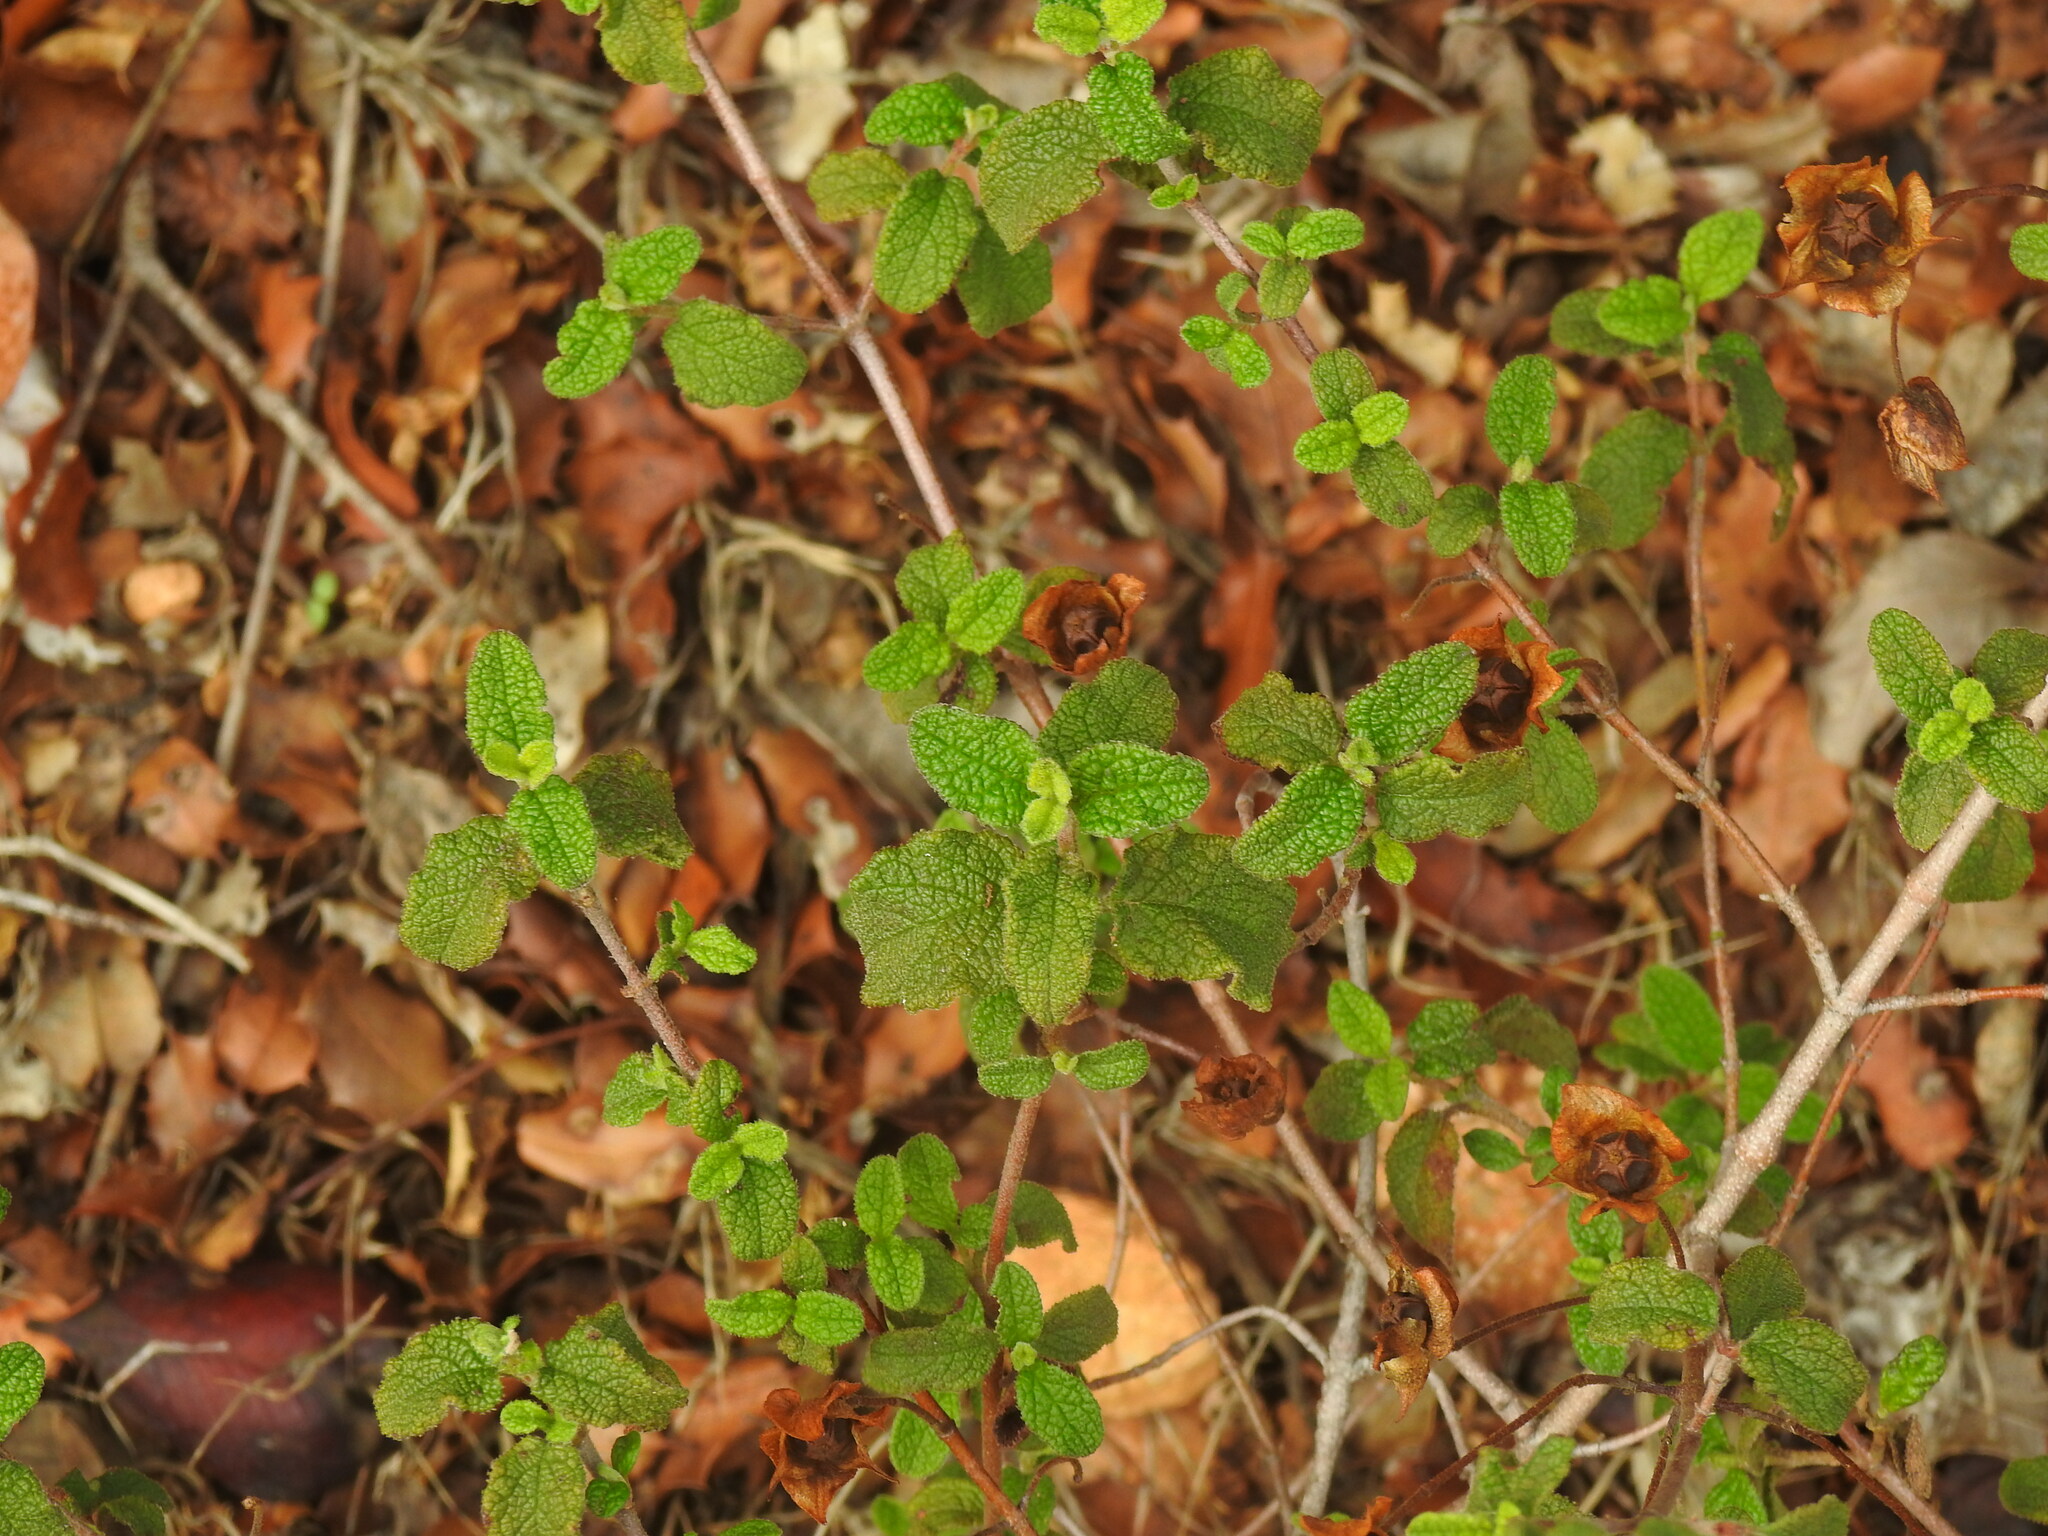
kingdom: Plantae
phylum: Tracheophyta
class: Magnoliopsida
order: Malvales
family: Cistaceae
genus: Cistus
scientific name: Cistus salviifolius
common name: Salvia cistus
